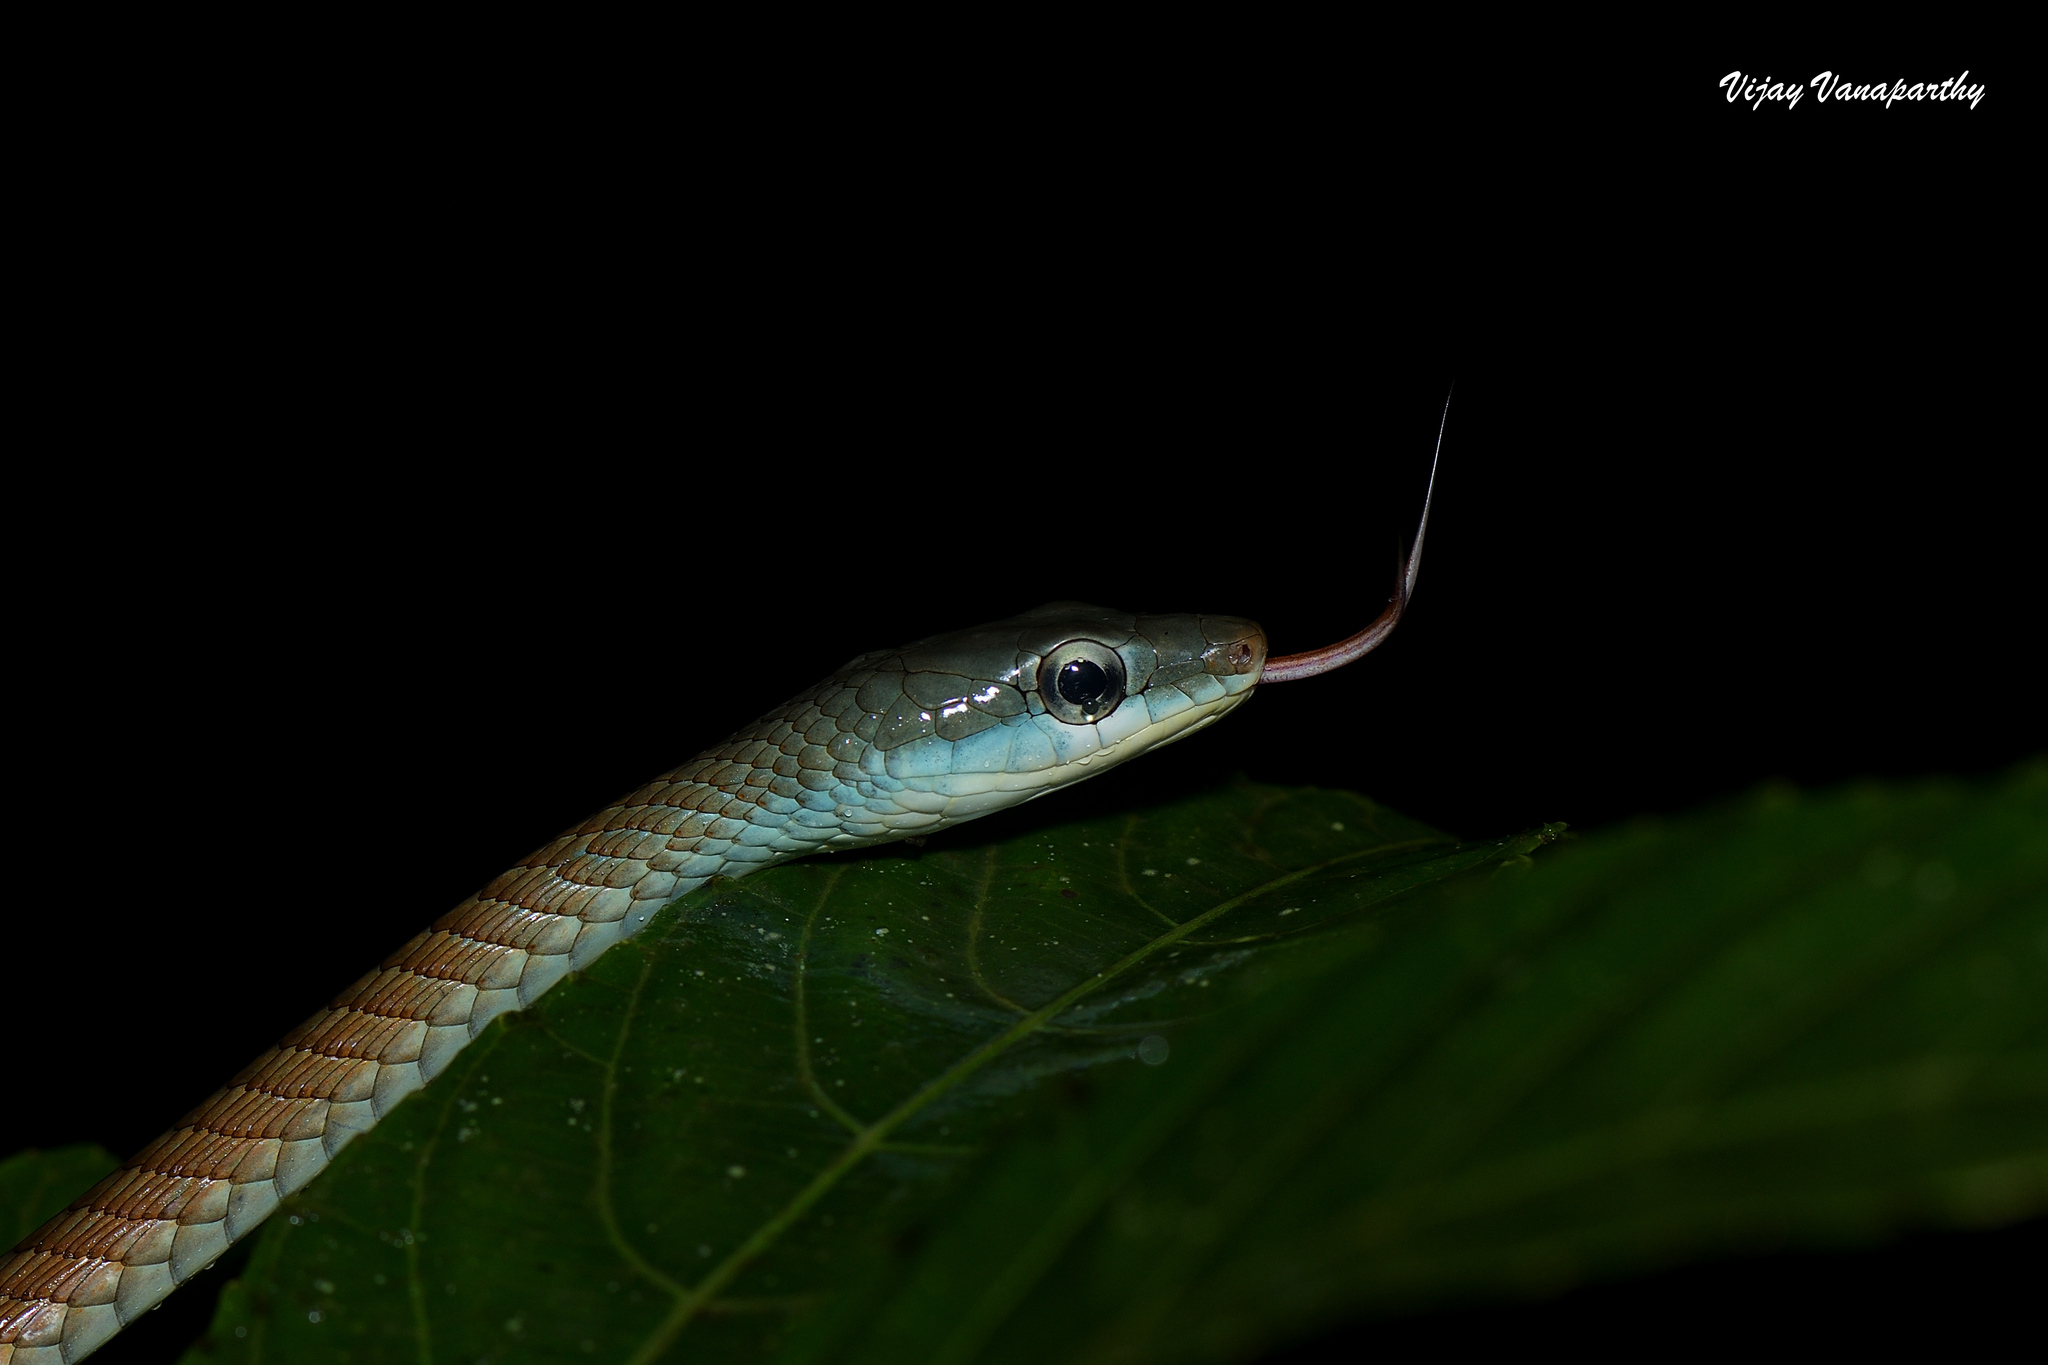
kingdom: Animalia
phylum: Chordata
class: Squamata
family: Colubridae
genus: Dendrelaphis
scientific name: Dendrelaphis grandoculis
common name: Southern bronzeback
